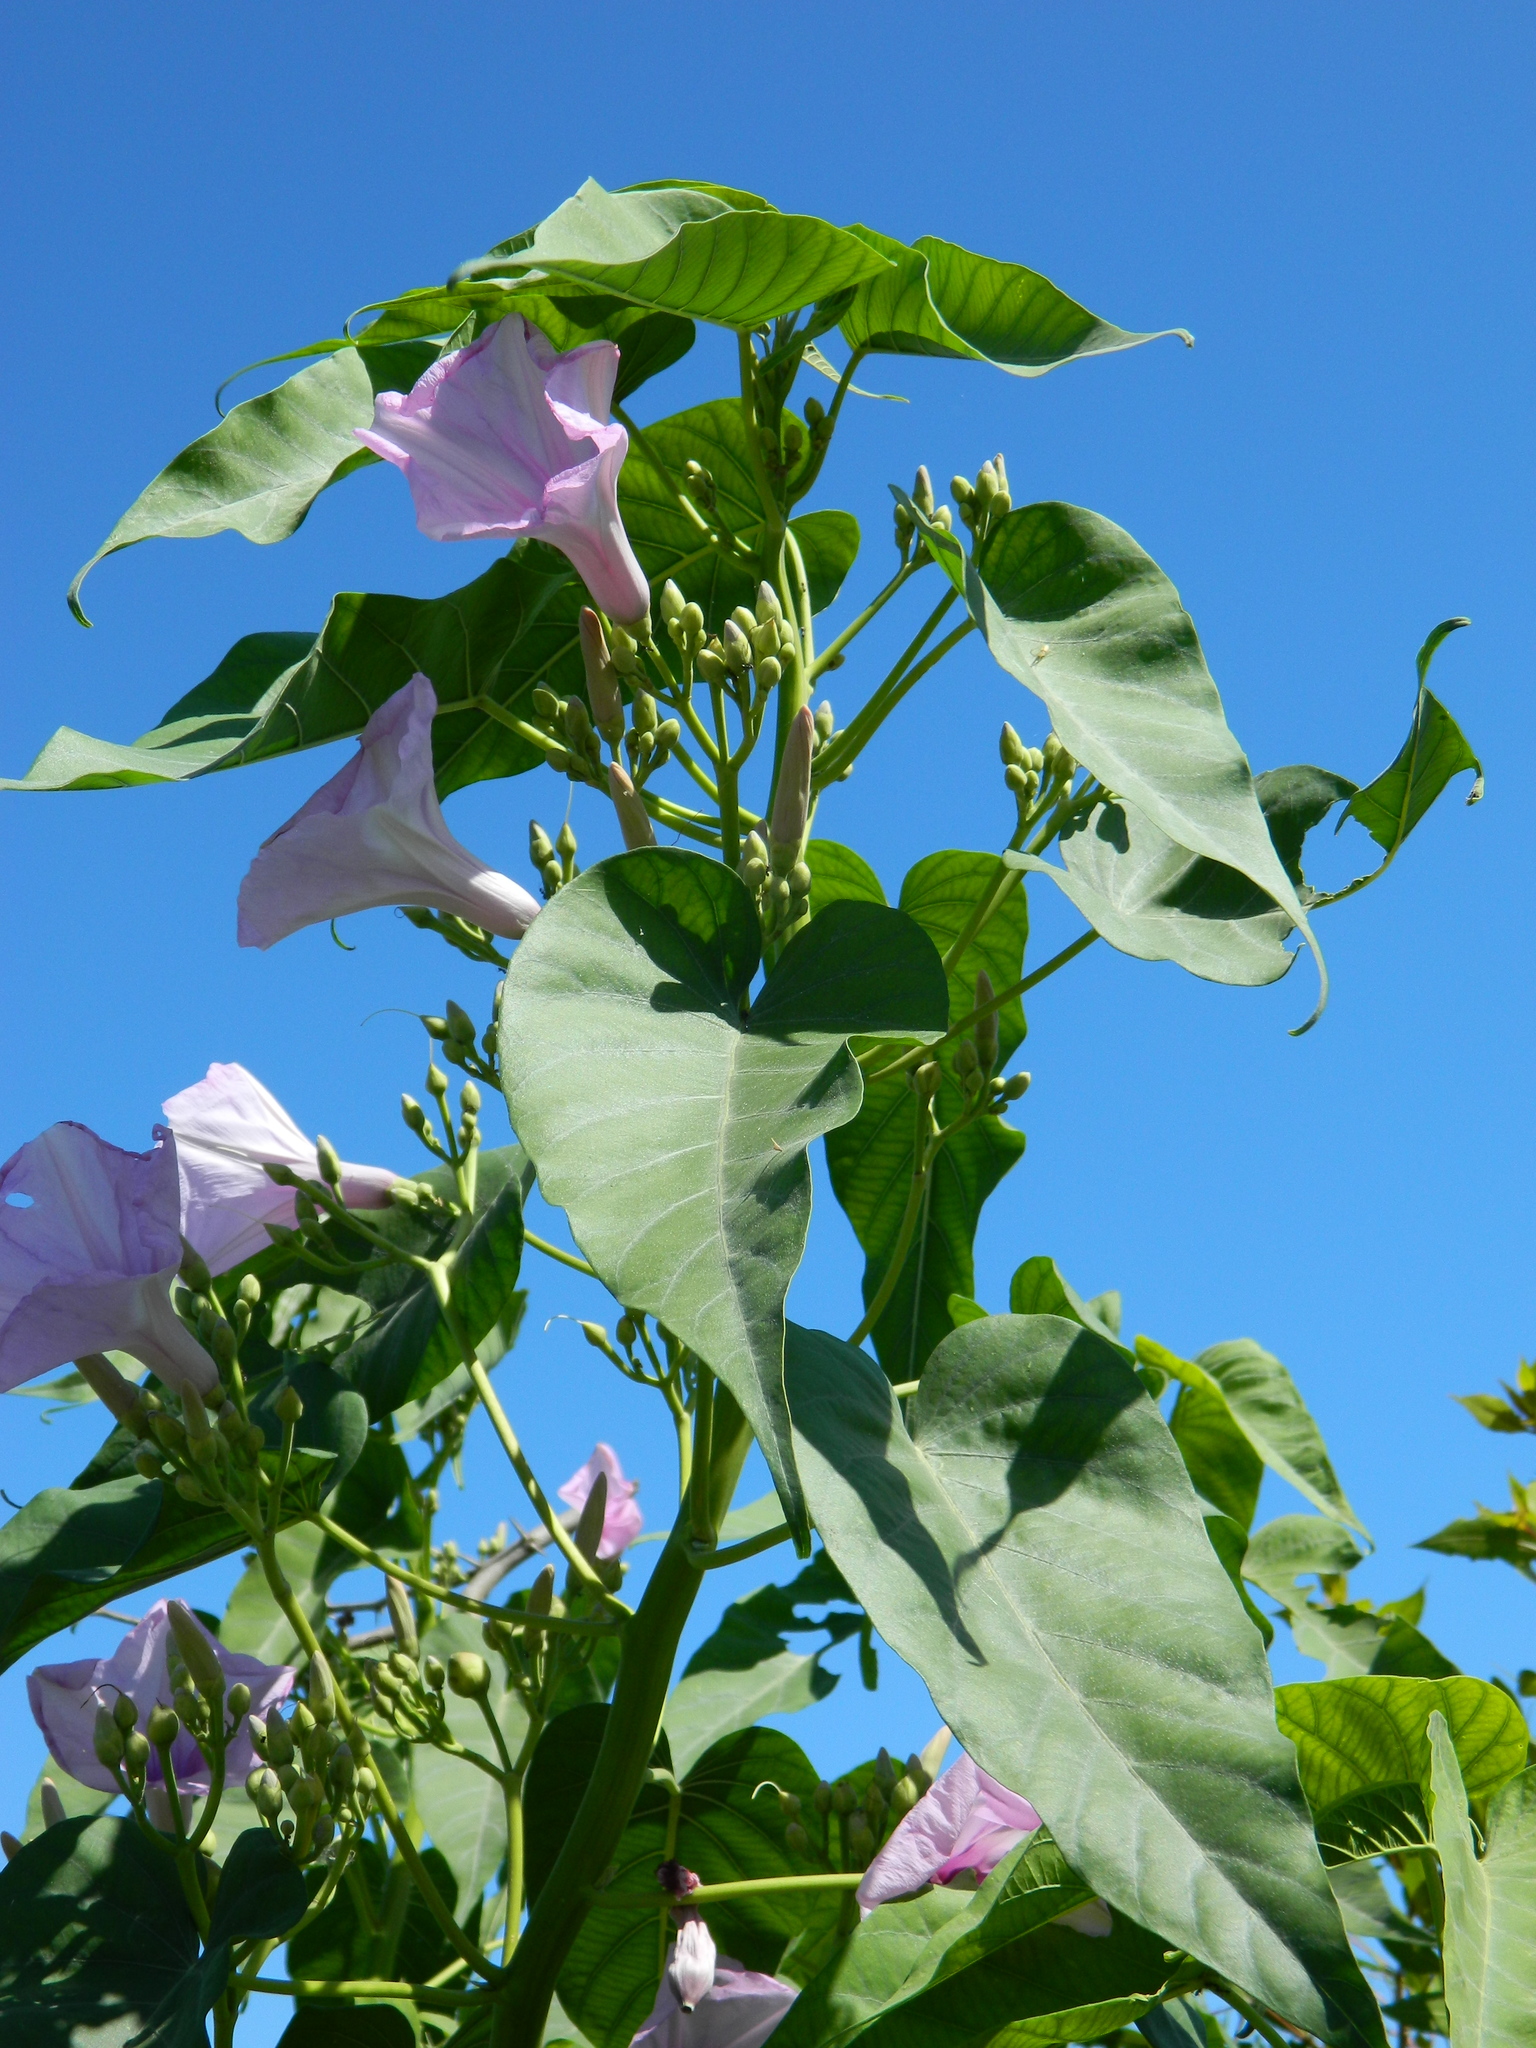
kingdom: Plantae
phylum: Tracheophyta
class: Magnoliopsida
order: Solanales
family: Convolvulaceae
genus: Ipomoea
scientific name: Ipomoea carnea
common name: Morning-glory
